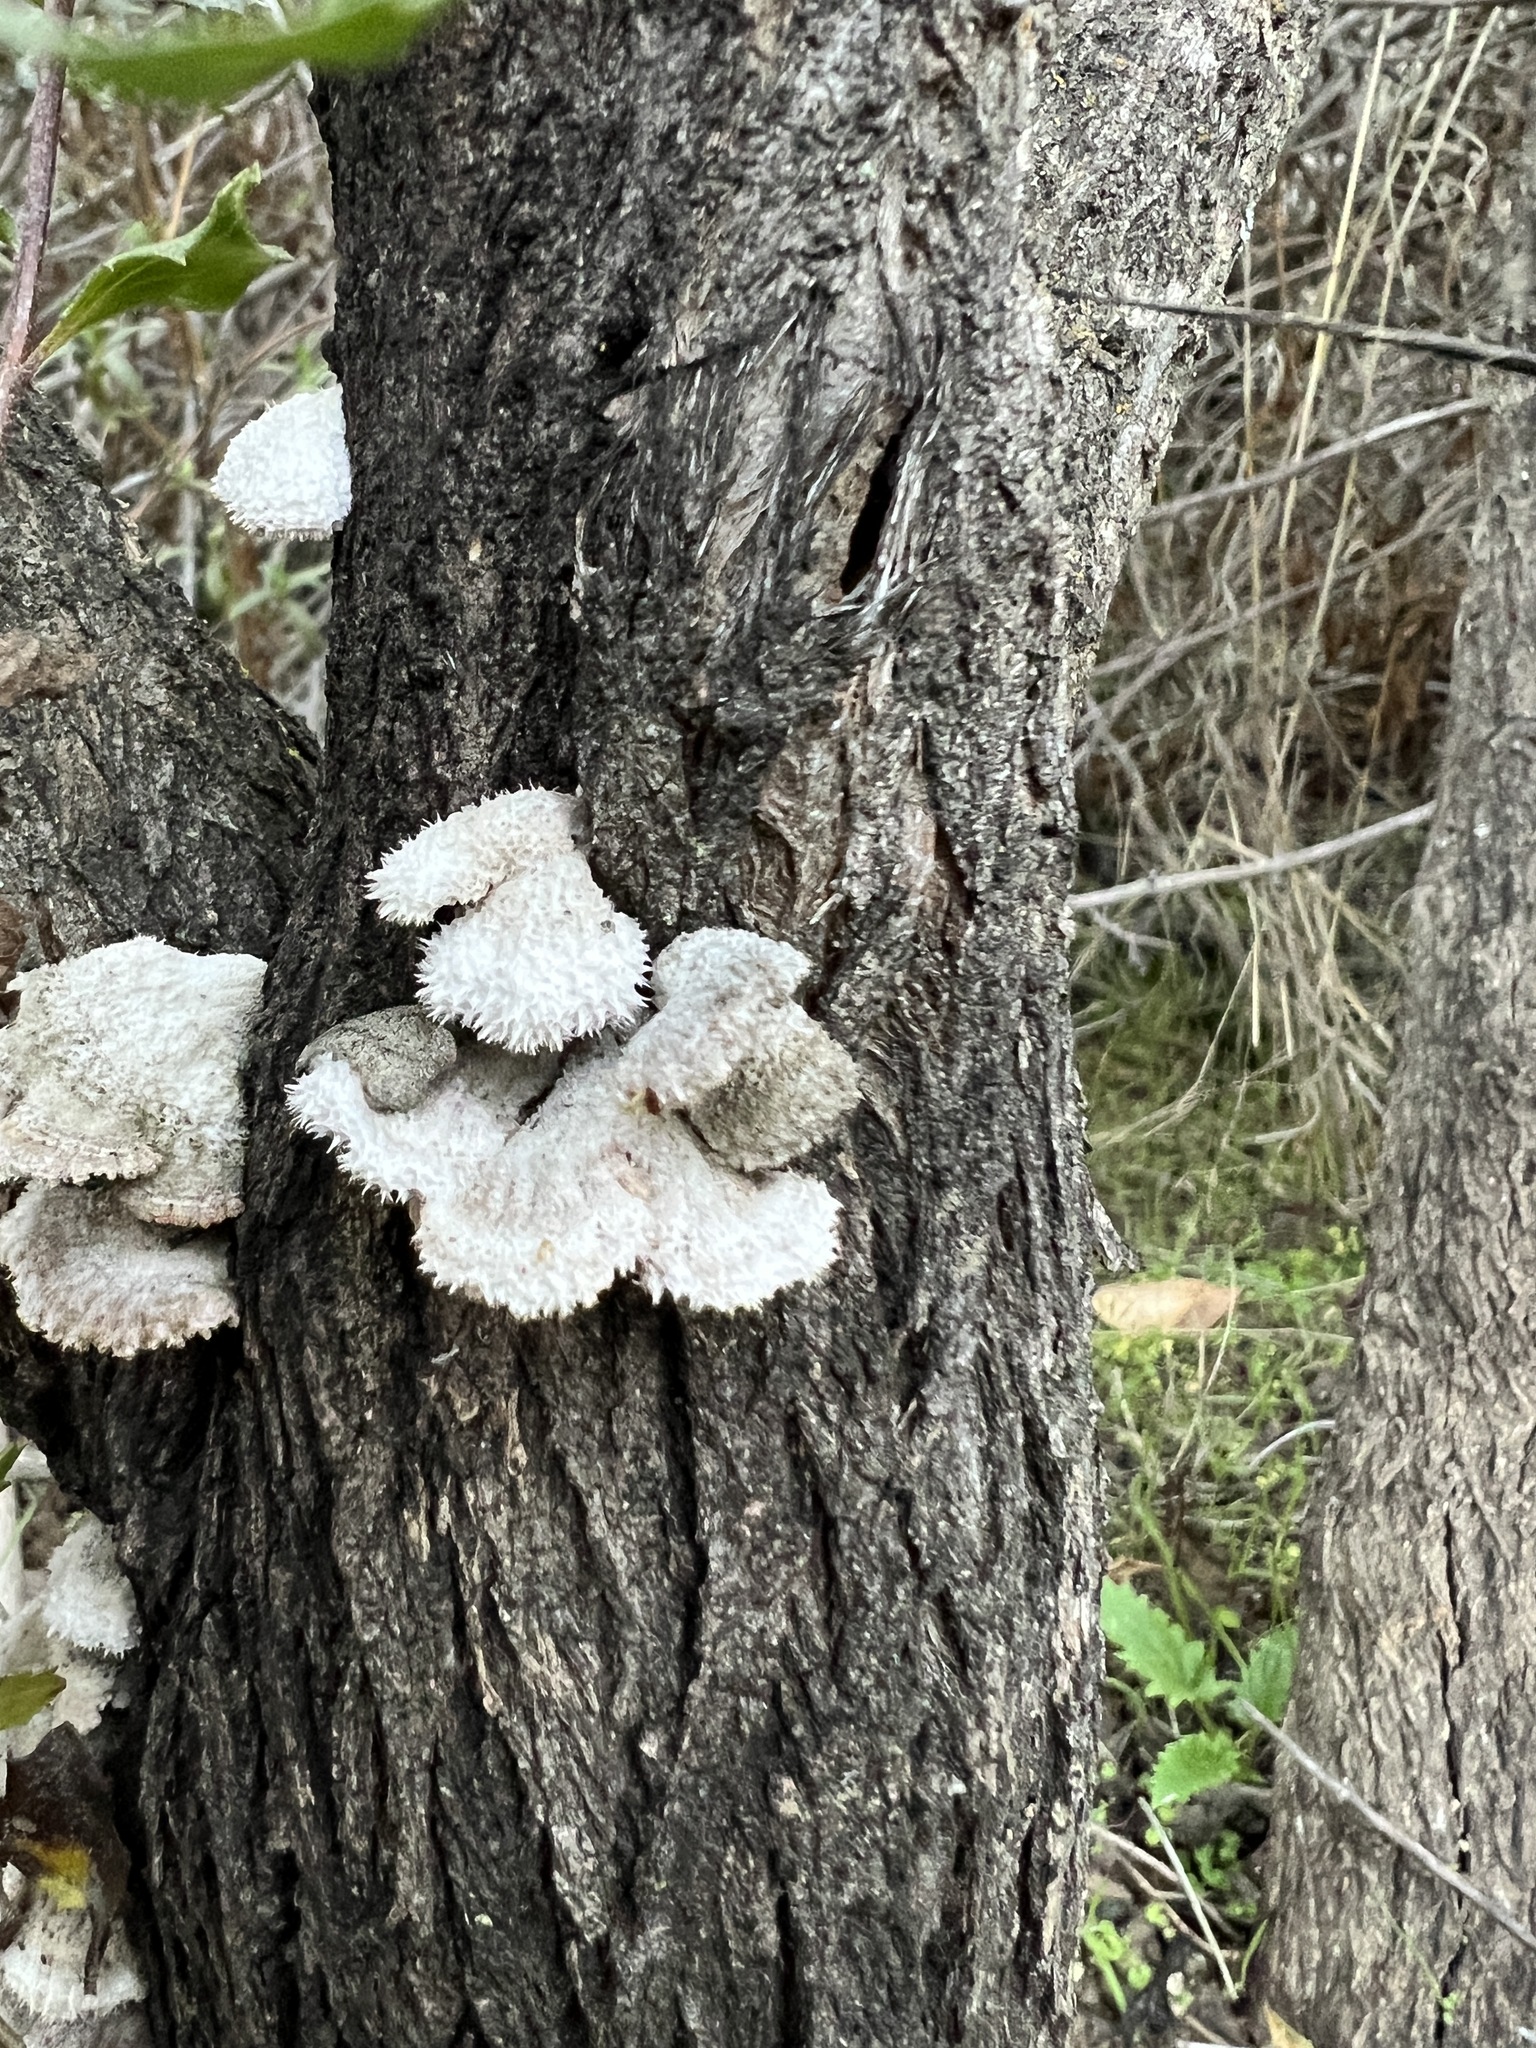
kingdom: Fungi
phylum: Basidiomycota
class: Agaricomycetes
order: Agaricales
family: Schizophyllaceae
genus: Schizophyllum
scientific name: Schizophyllum commune
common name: Common porecrust
